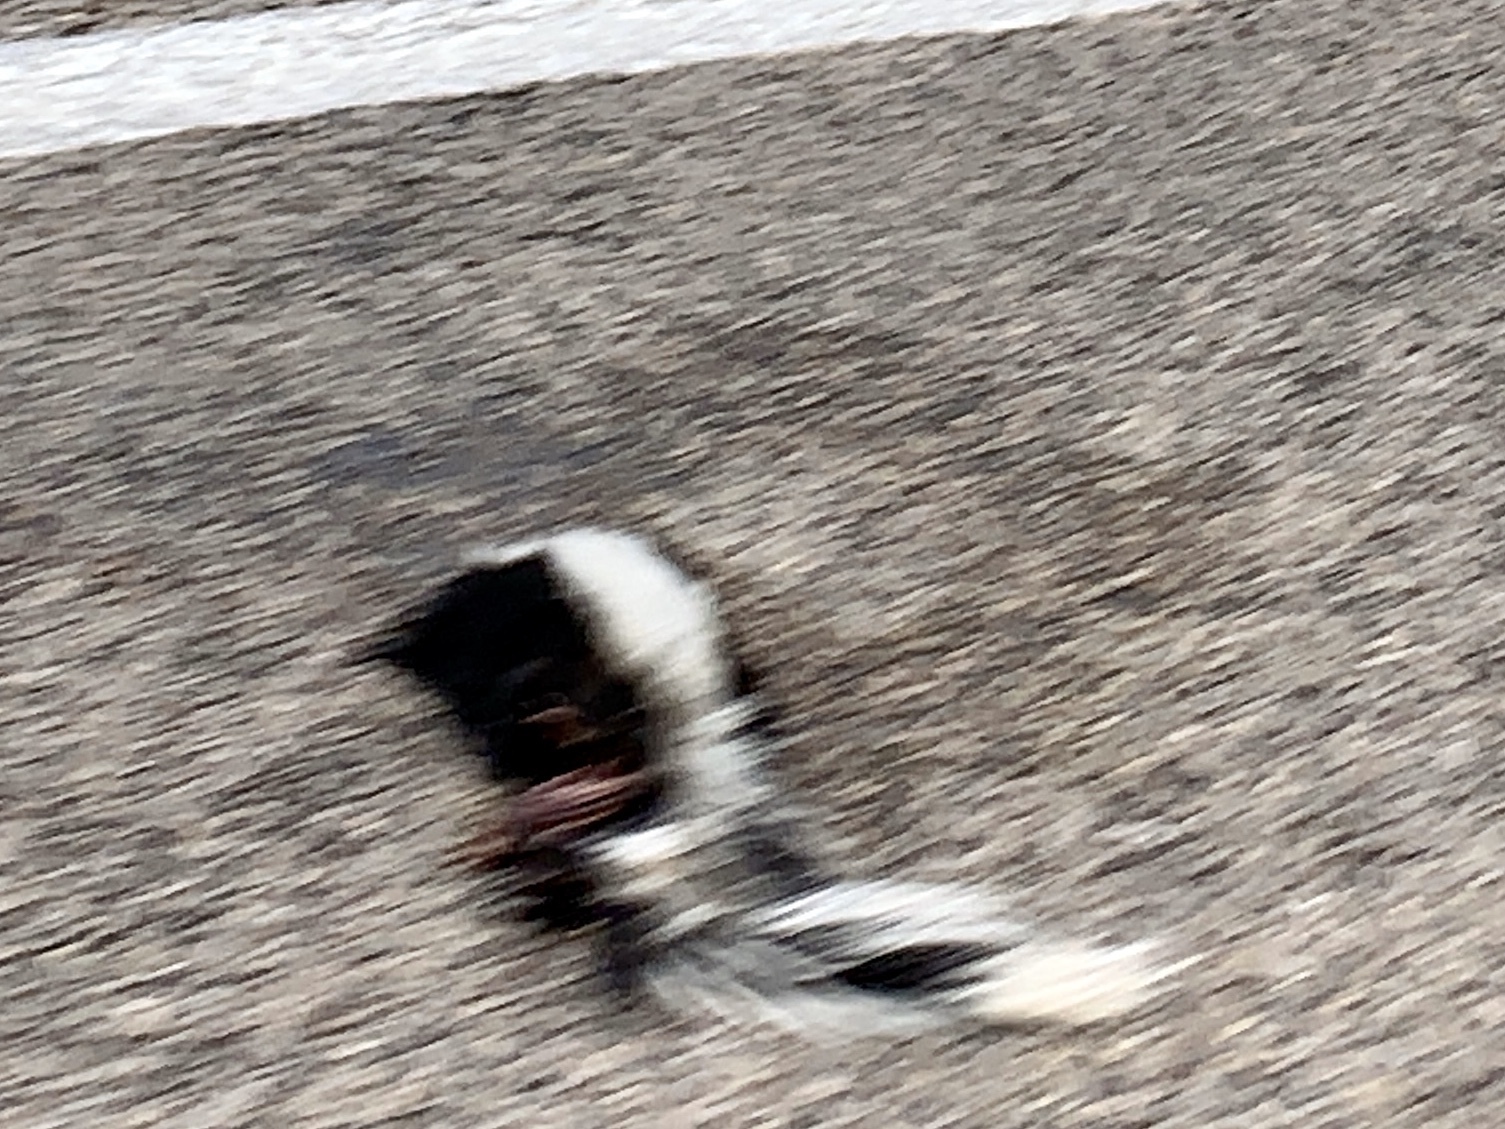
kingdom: Animalia
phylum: Chordata
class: Mammalia
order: Carnivora
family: Mephitidae
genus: Mephitis
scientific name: Mephitis mephitis
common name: Striped skunk
